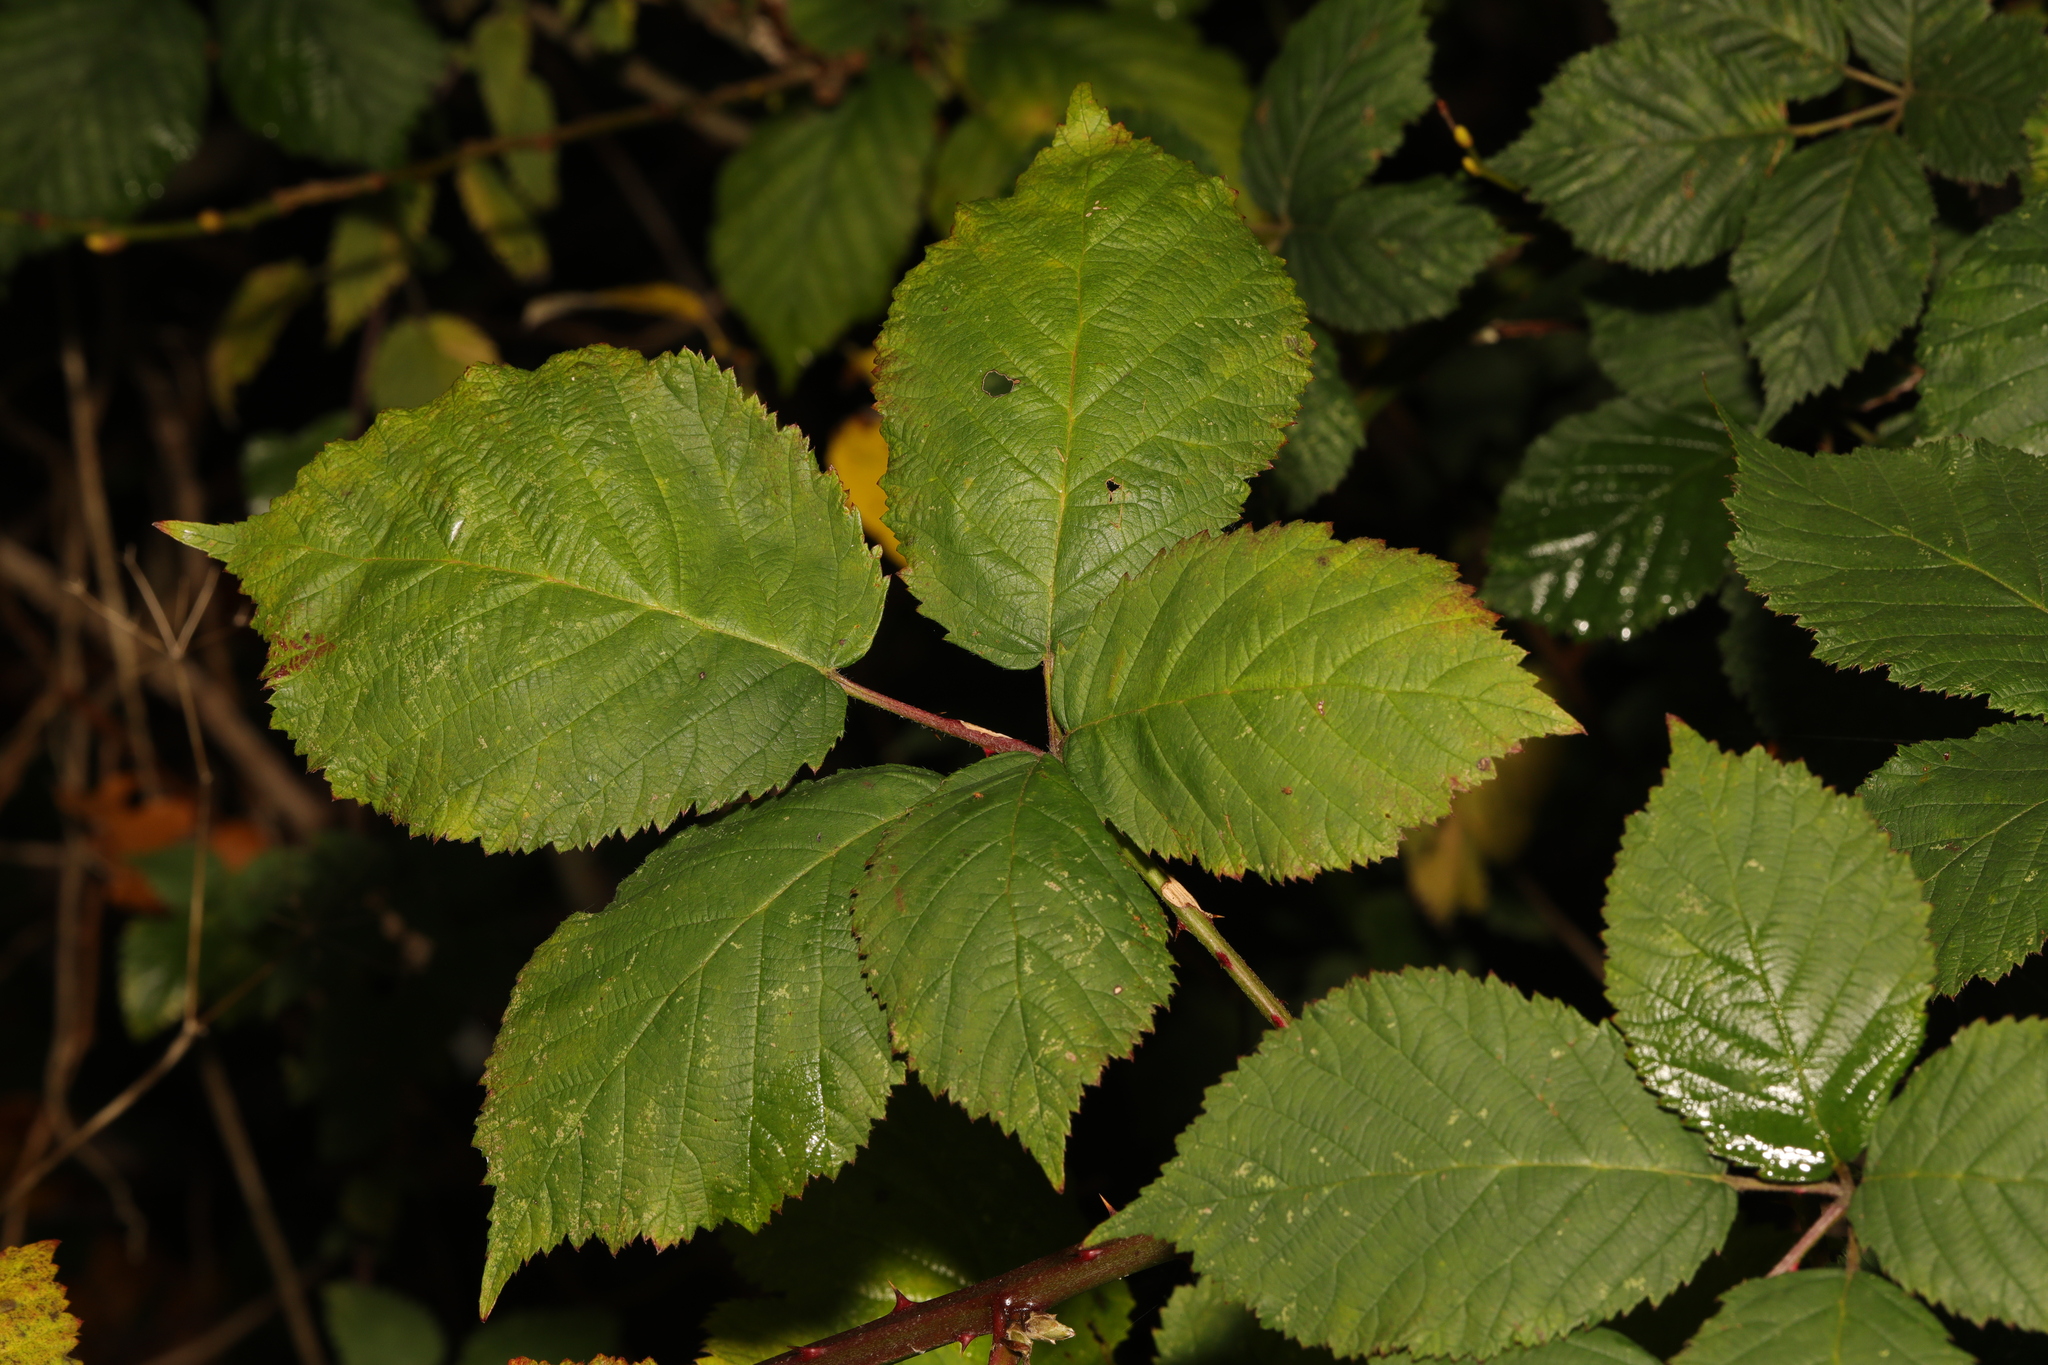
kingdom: Plantae
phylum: Tracheophyta
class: Magnoliopsida
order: Rosales
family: Rosaceae
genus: Rubus
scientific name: Rubus armeniacus
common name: Himalayan blackberry
